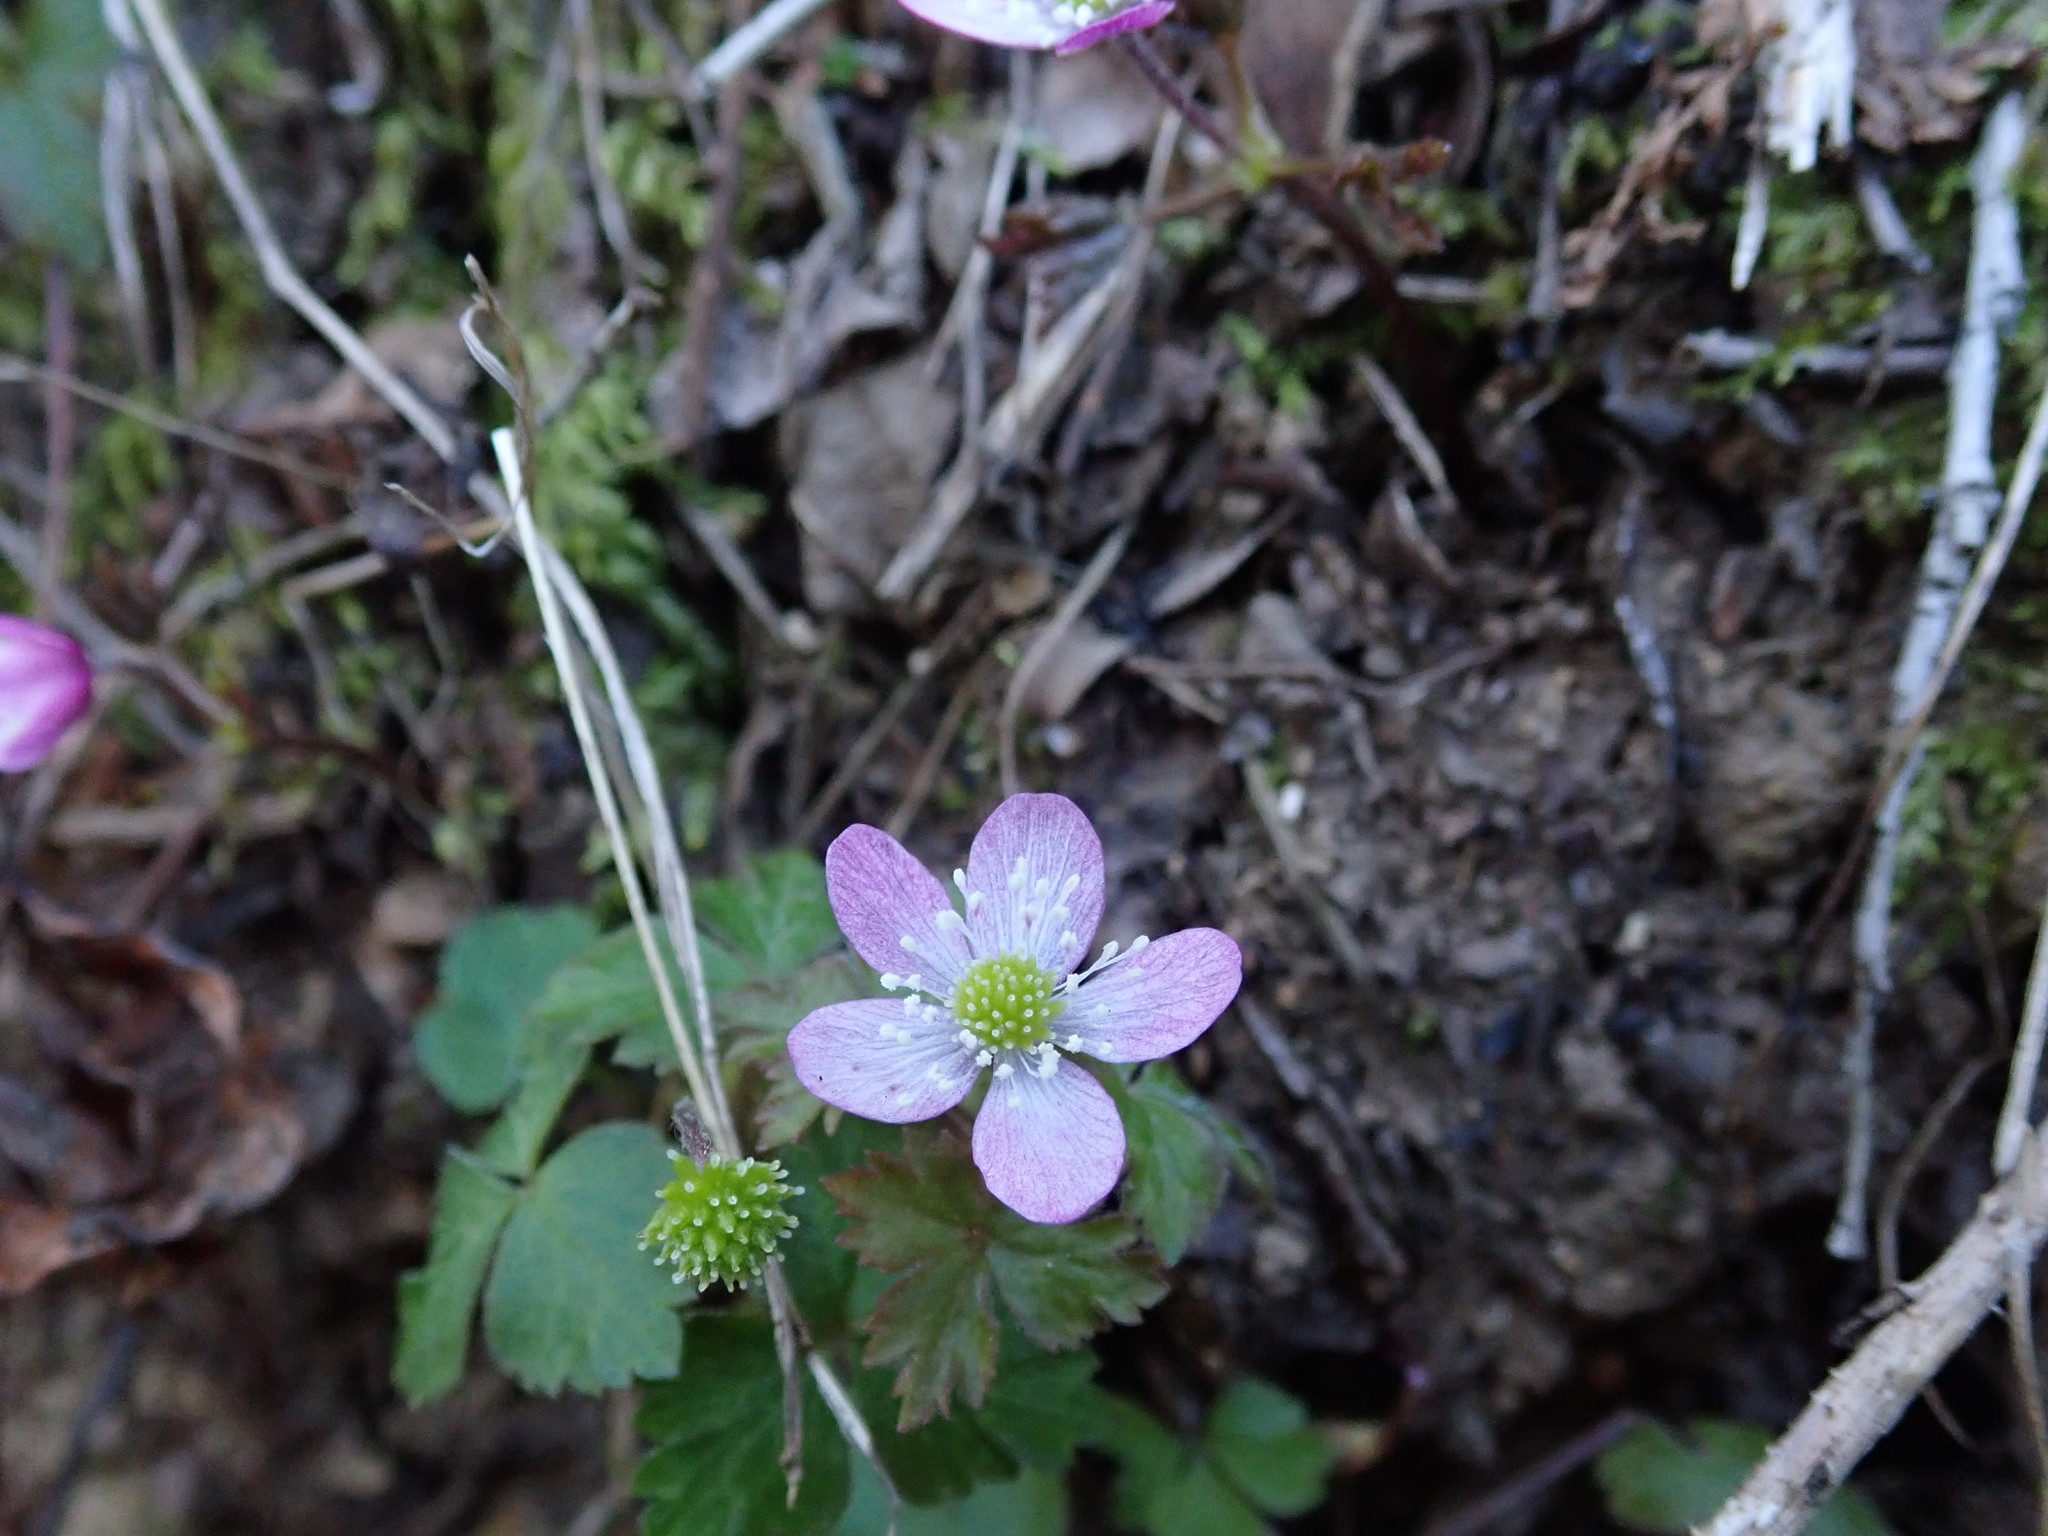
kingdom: Plantae
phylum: Tracheophyta
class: Magnoliopsida
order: Ranunculales
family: Ranunculaceae
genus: Anemone
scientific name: Anemone
